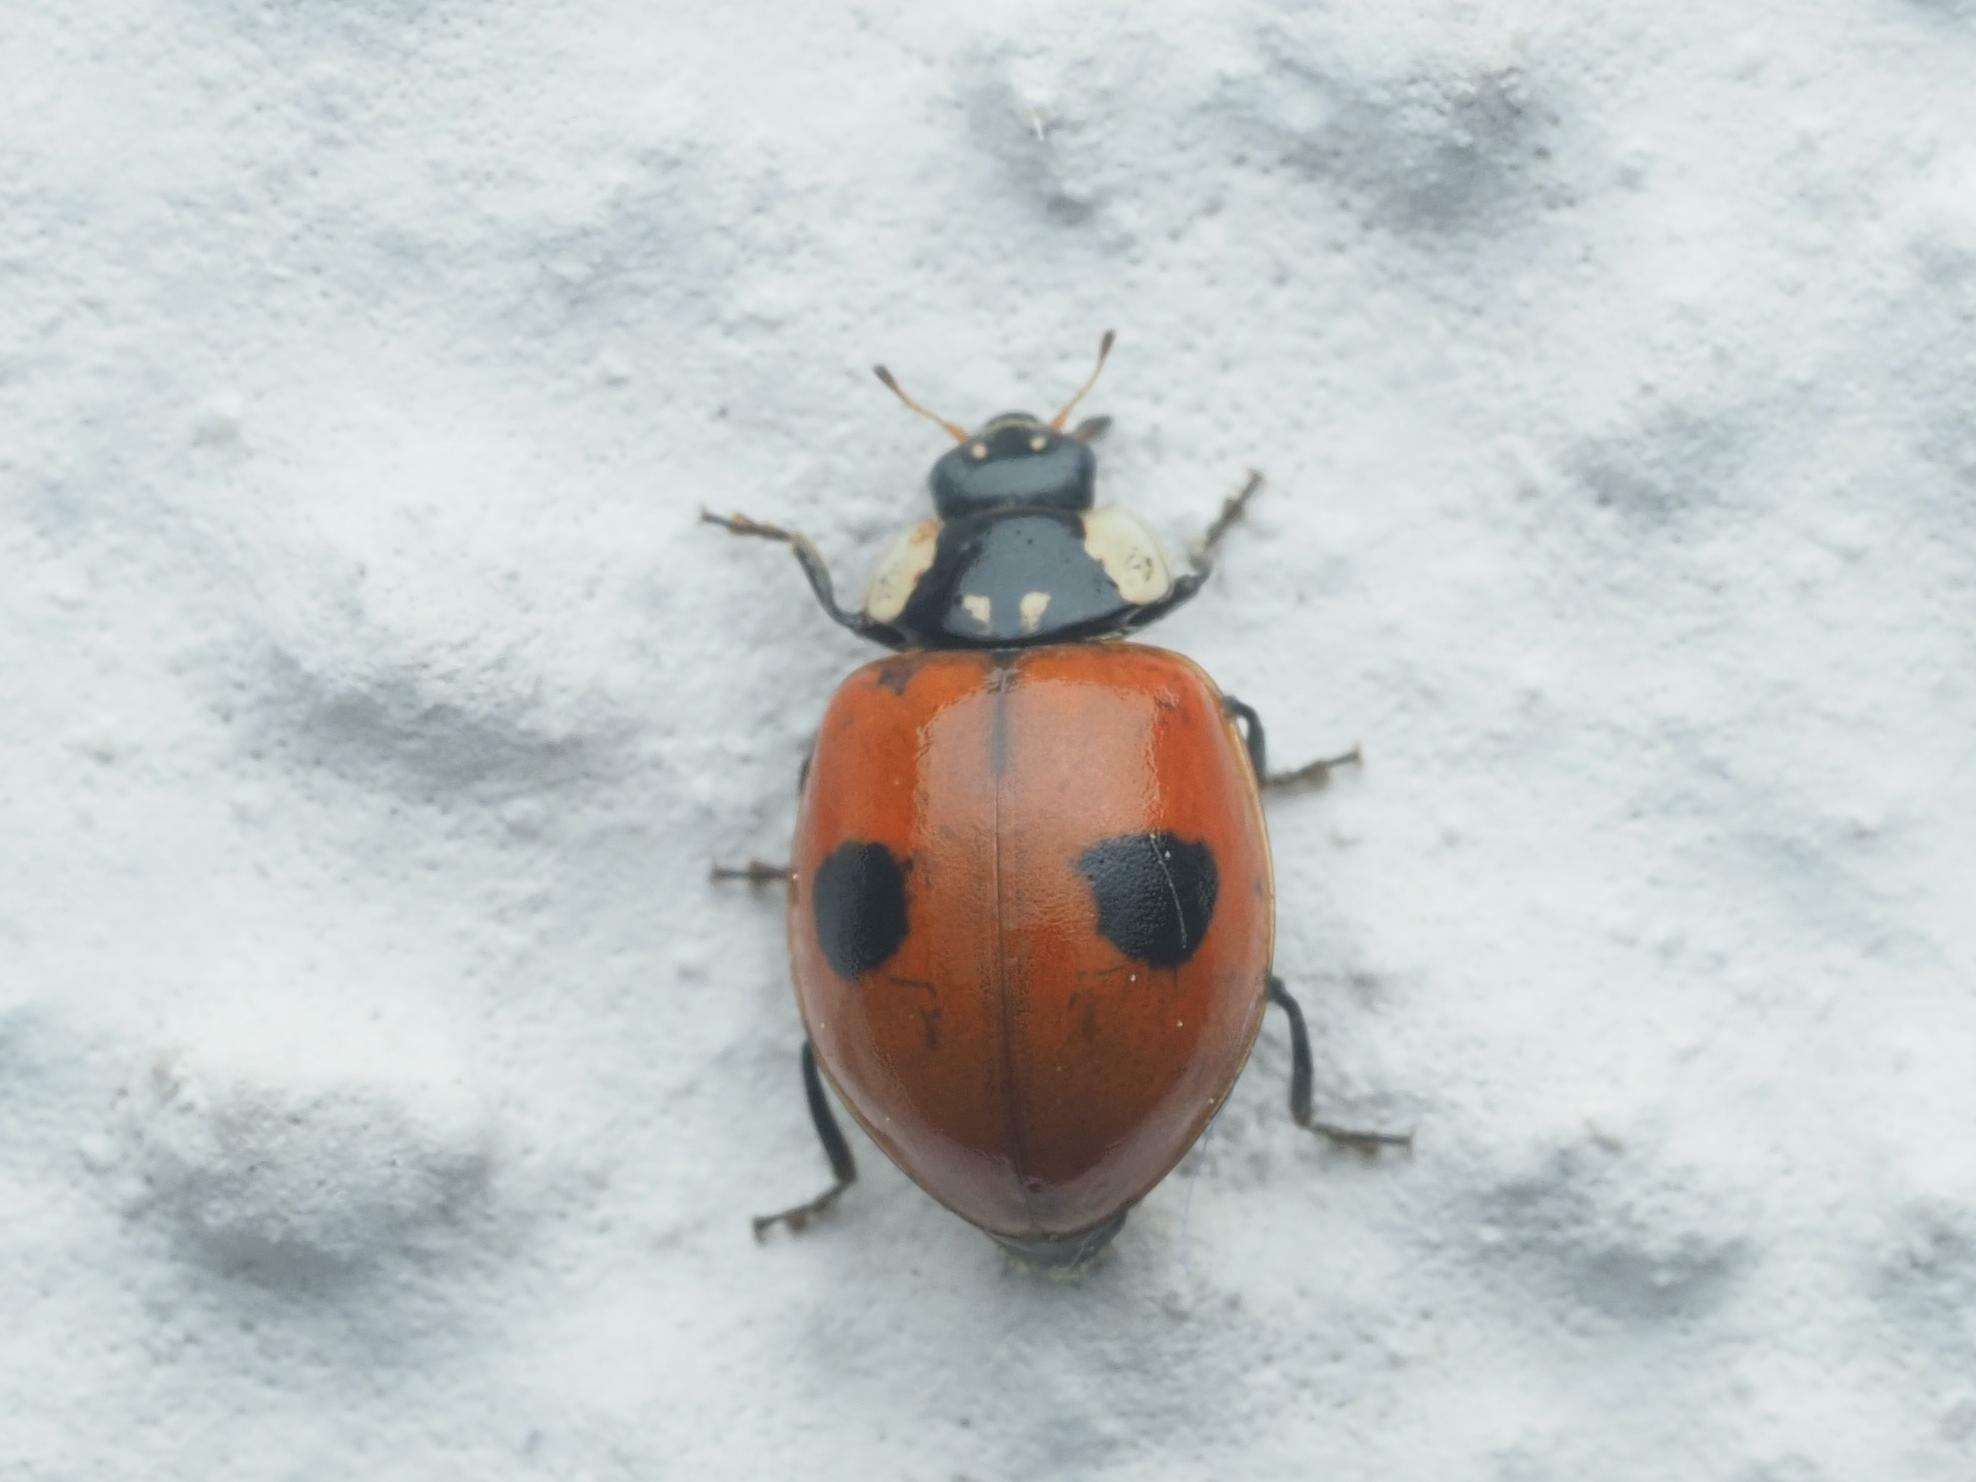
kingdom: Animalia
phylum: Arthropoda
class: Insecta
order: Coleoptera
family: Coccinellidae
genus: Adalia
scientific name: Adalia bipunctata
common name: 2-spot ladybird
